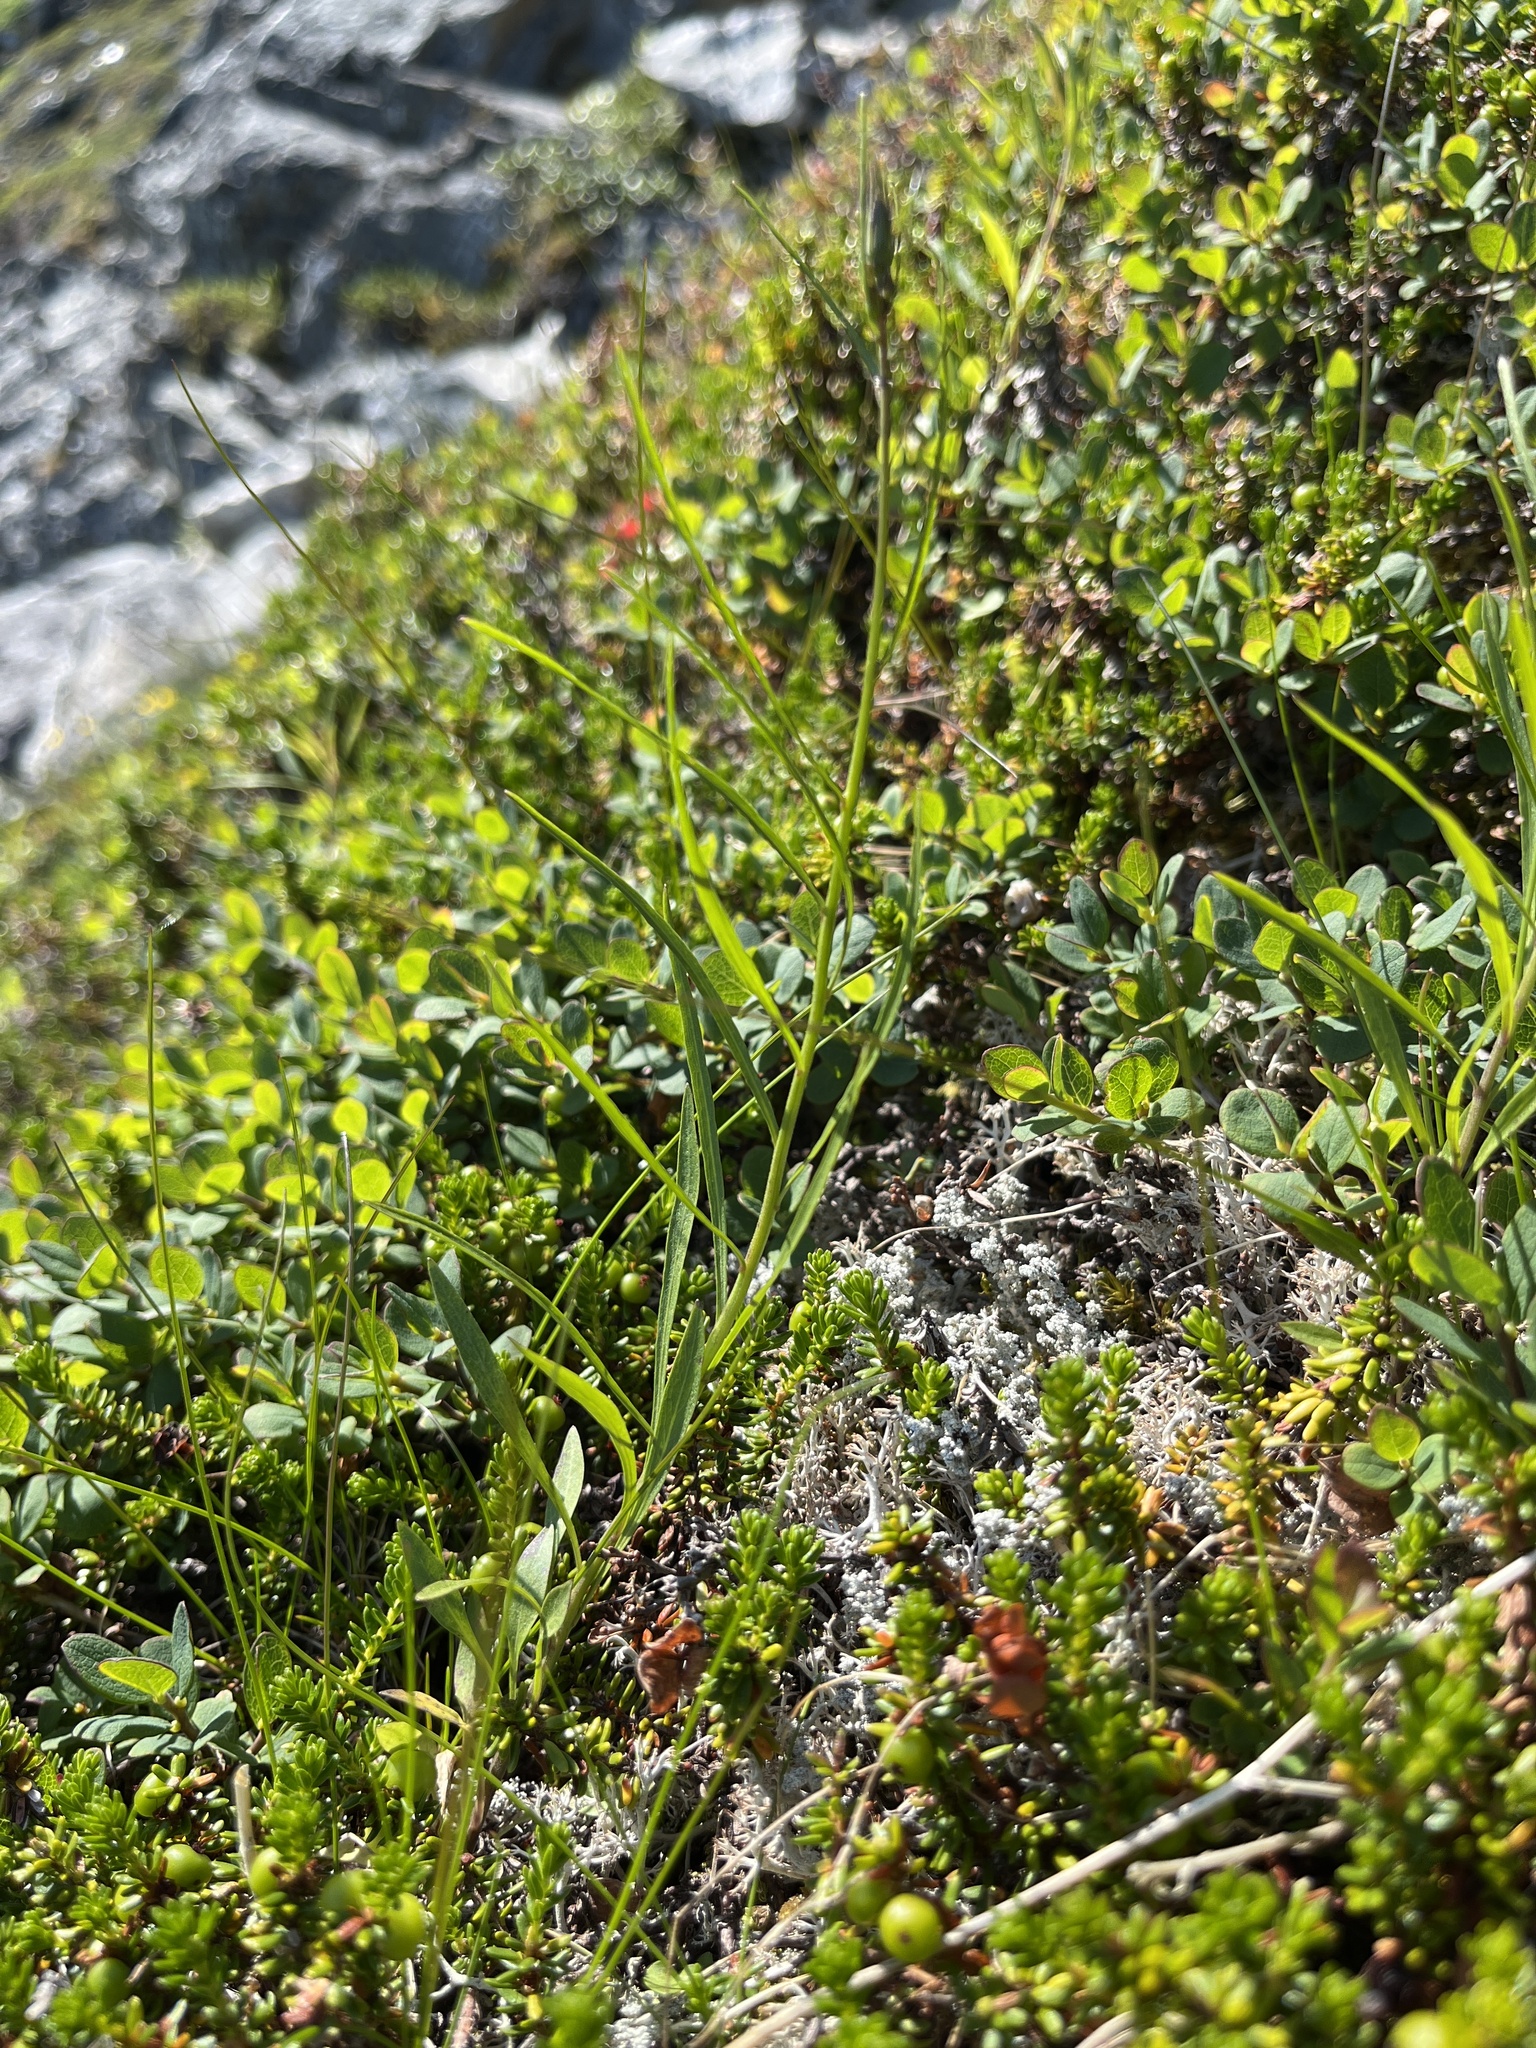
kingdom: Plantae
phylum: Tracheophyta
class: Magnoliopsida
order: Asterales
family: Campanulaceae
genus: Campanula
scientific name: Campanula giesekiana
